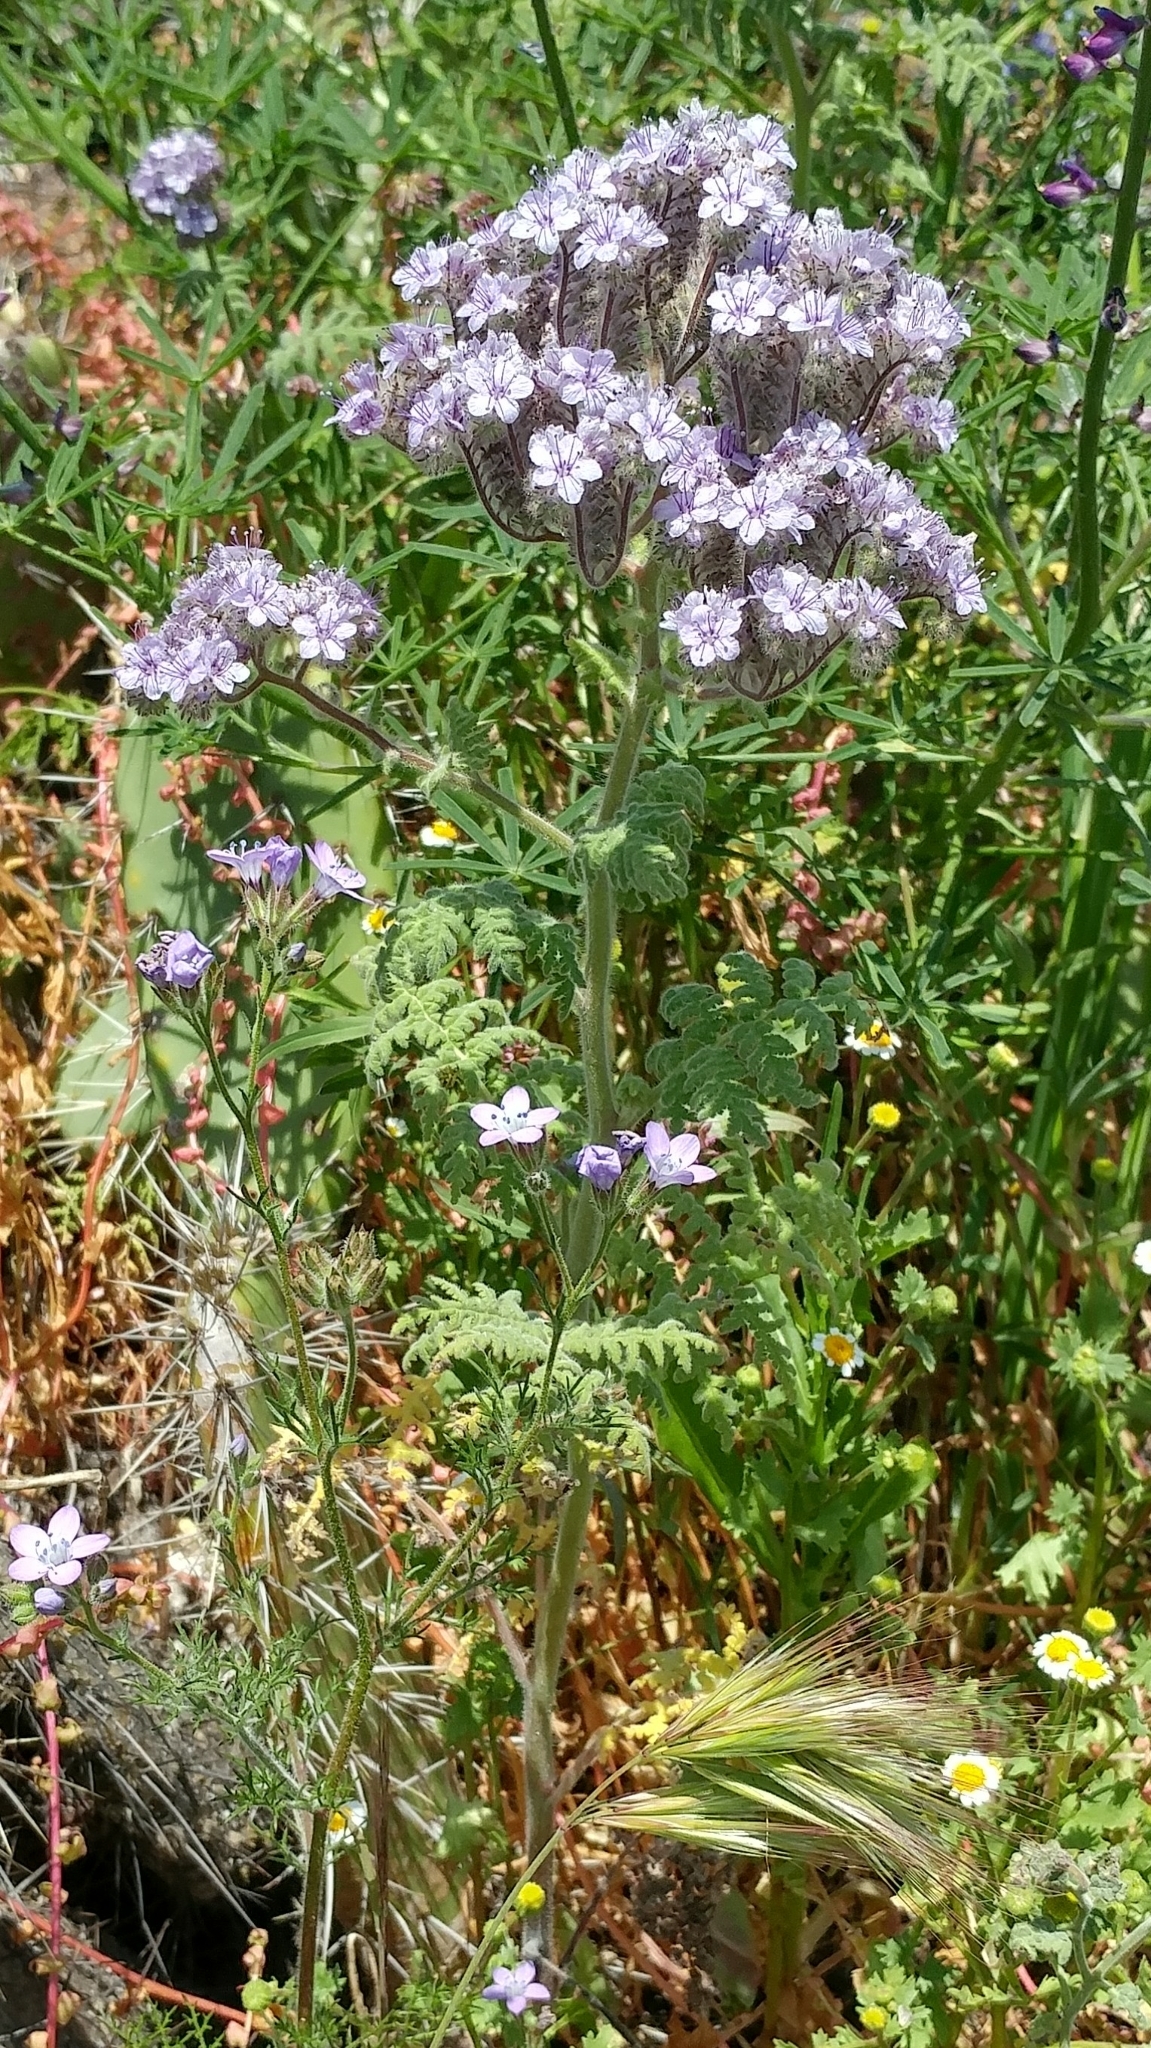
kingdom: Plantae
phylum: Tracheophyta
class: Magnoliopsida
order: Boraginales
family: Hydrophyllaceae
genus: Phacelia
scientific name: Phacelia floribunda
